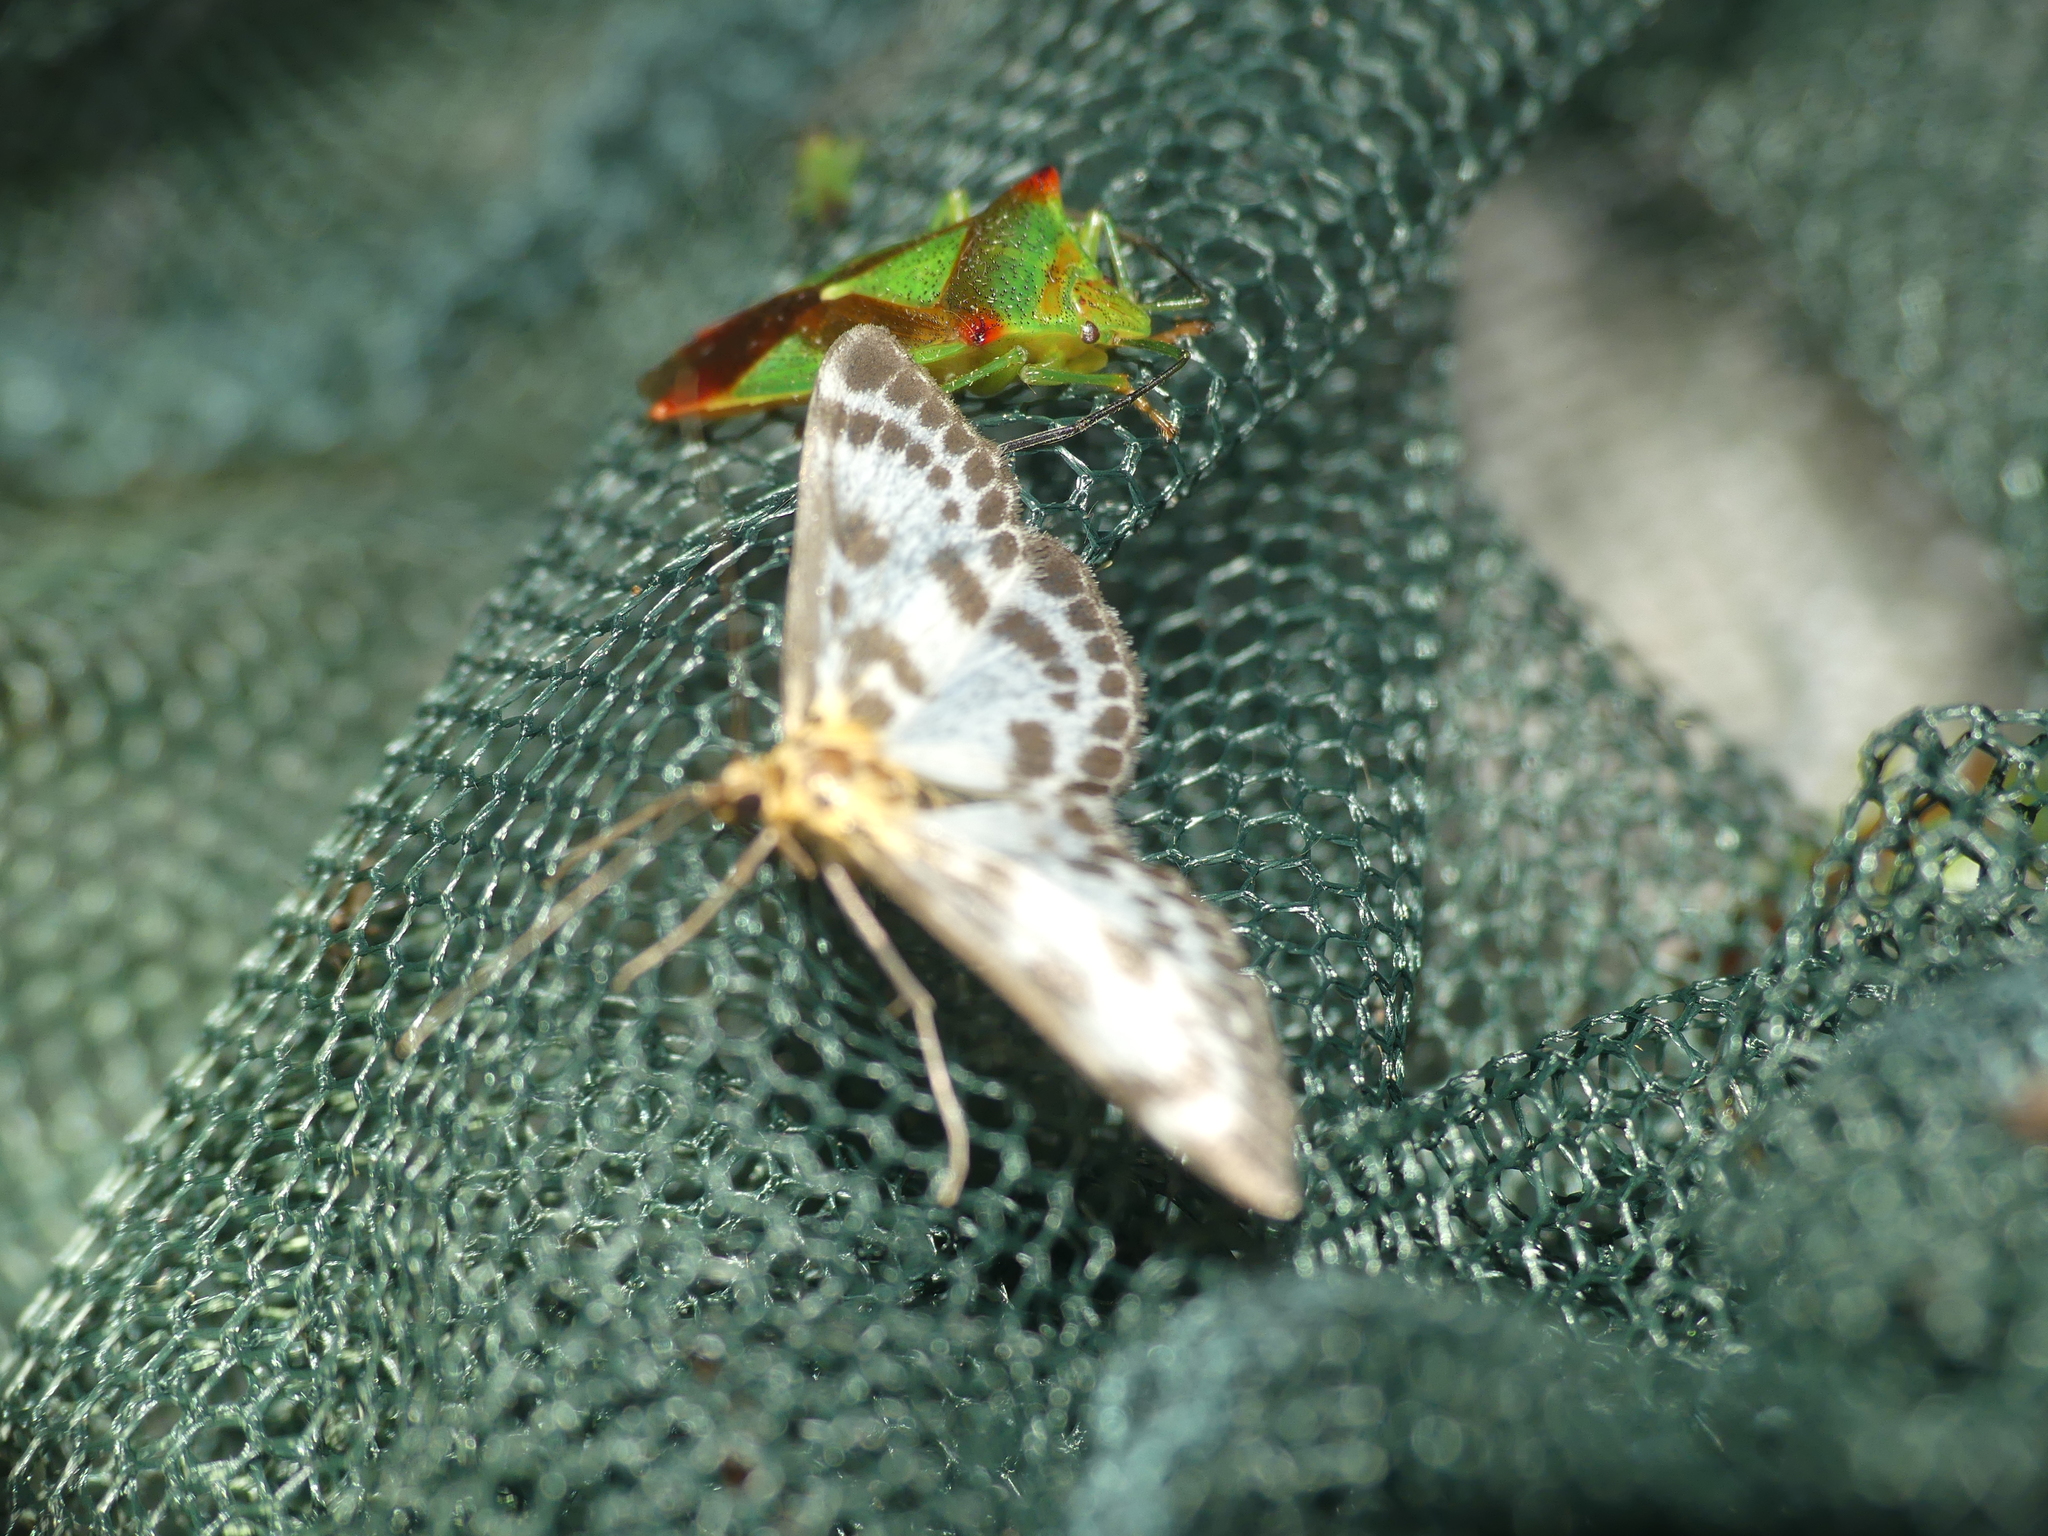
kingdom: Animalia
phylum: Arthropoda
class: Insecta
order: Lepidoptera
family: Crambidae
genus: Anania
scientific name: Anania hortulata
